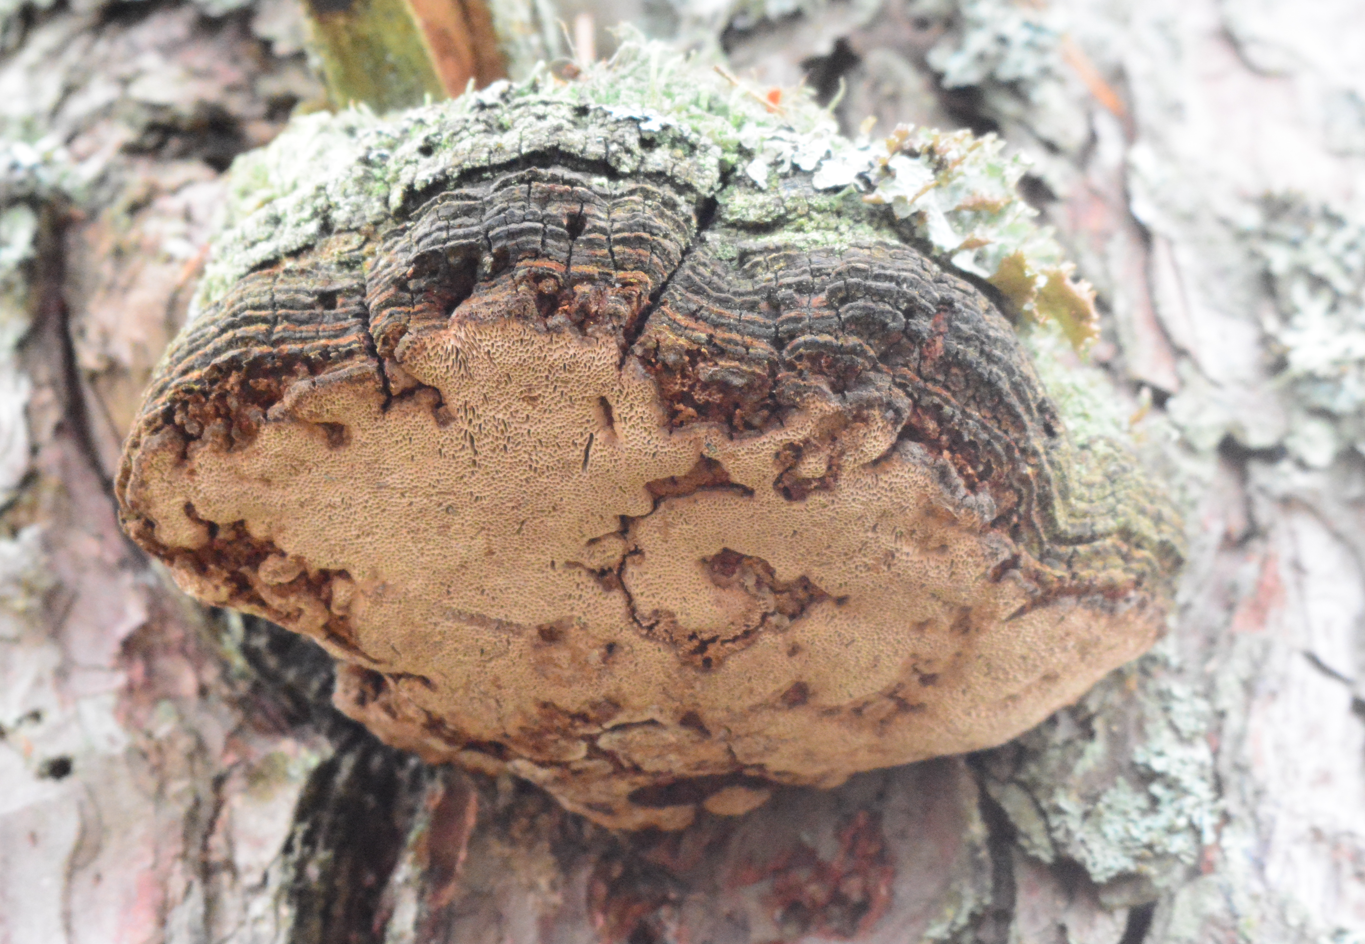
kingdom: Fungi
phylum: Basidiomycota
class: Agaricomycetes
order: Hymenochaetales
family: Hymenochaetaceae
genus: Porodaedalea
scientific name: Porodaedalea pini
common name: Pine bracket
